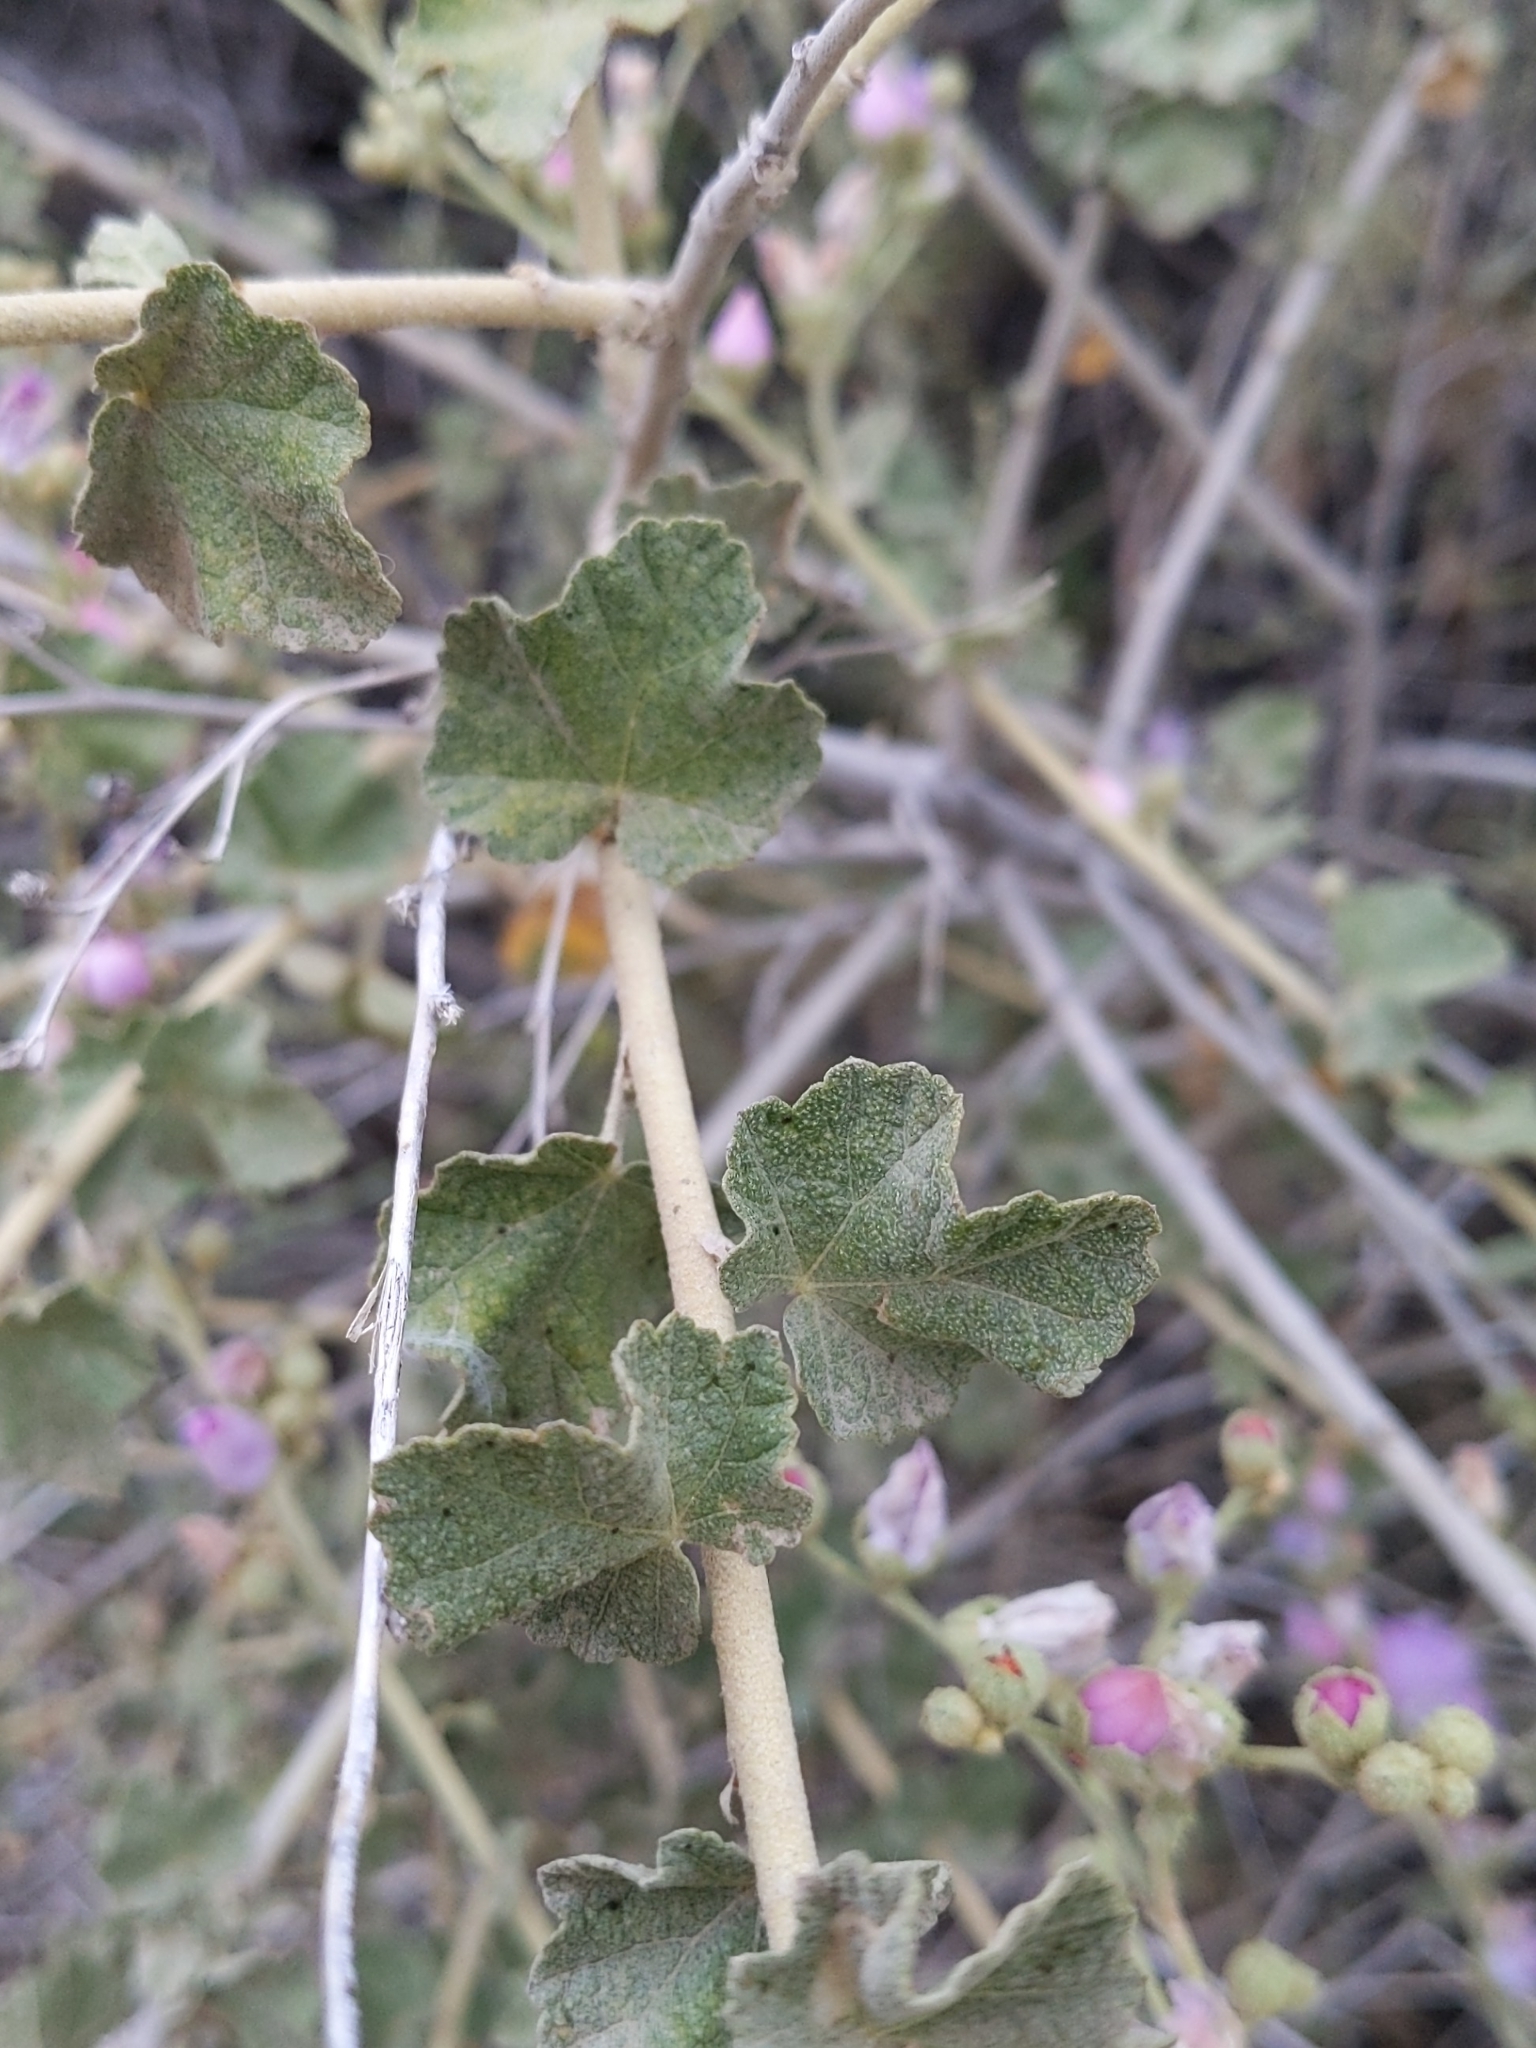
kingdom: Plantae
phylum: Tracheophyta
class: Magnoliopsida
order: Malvales
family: Malvaceae
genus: Malacothamnus
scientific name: Malacothamnus fasciculatus
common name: Sant cruz island bush-mallow
